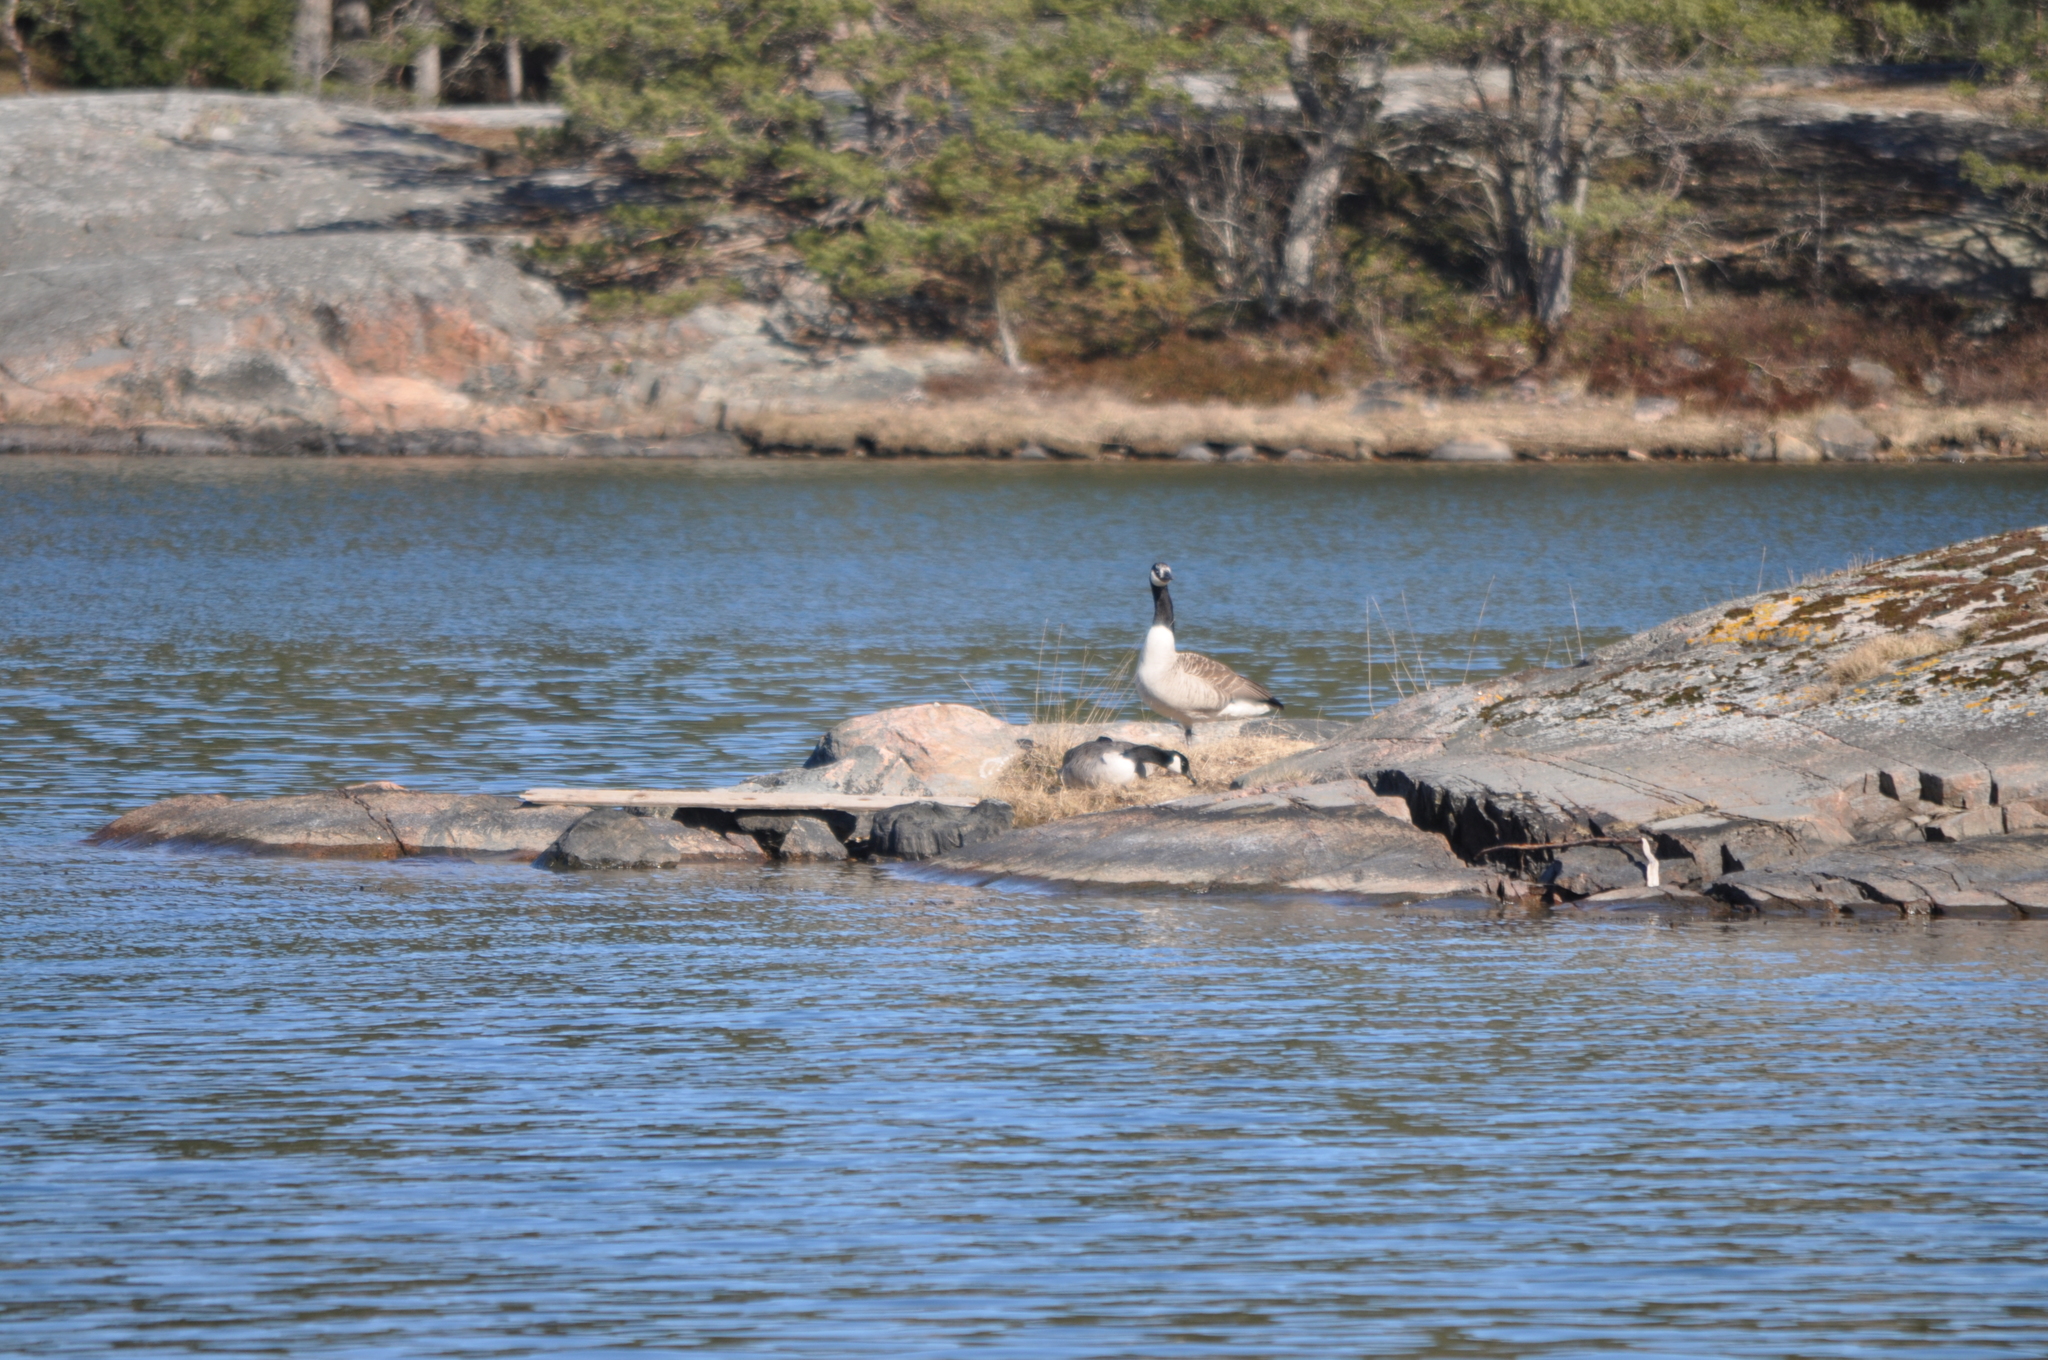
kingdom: Animalia
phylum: Chordata
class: Aves
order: Anseriformes
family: Anatidae
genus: Branta
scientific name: Branta canadensis
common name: Canada goose
